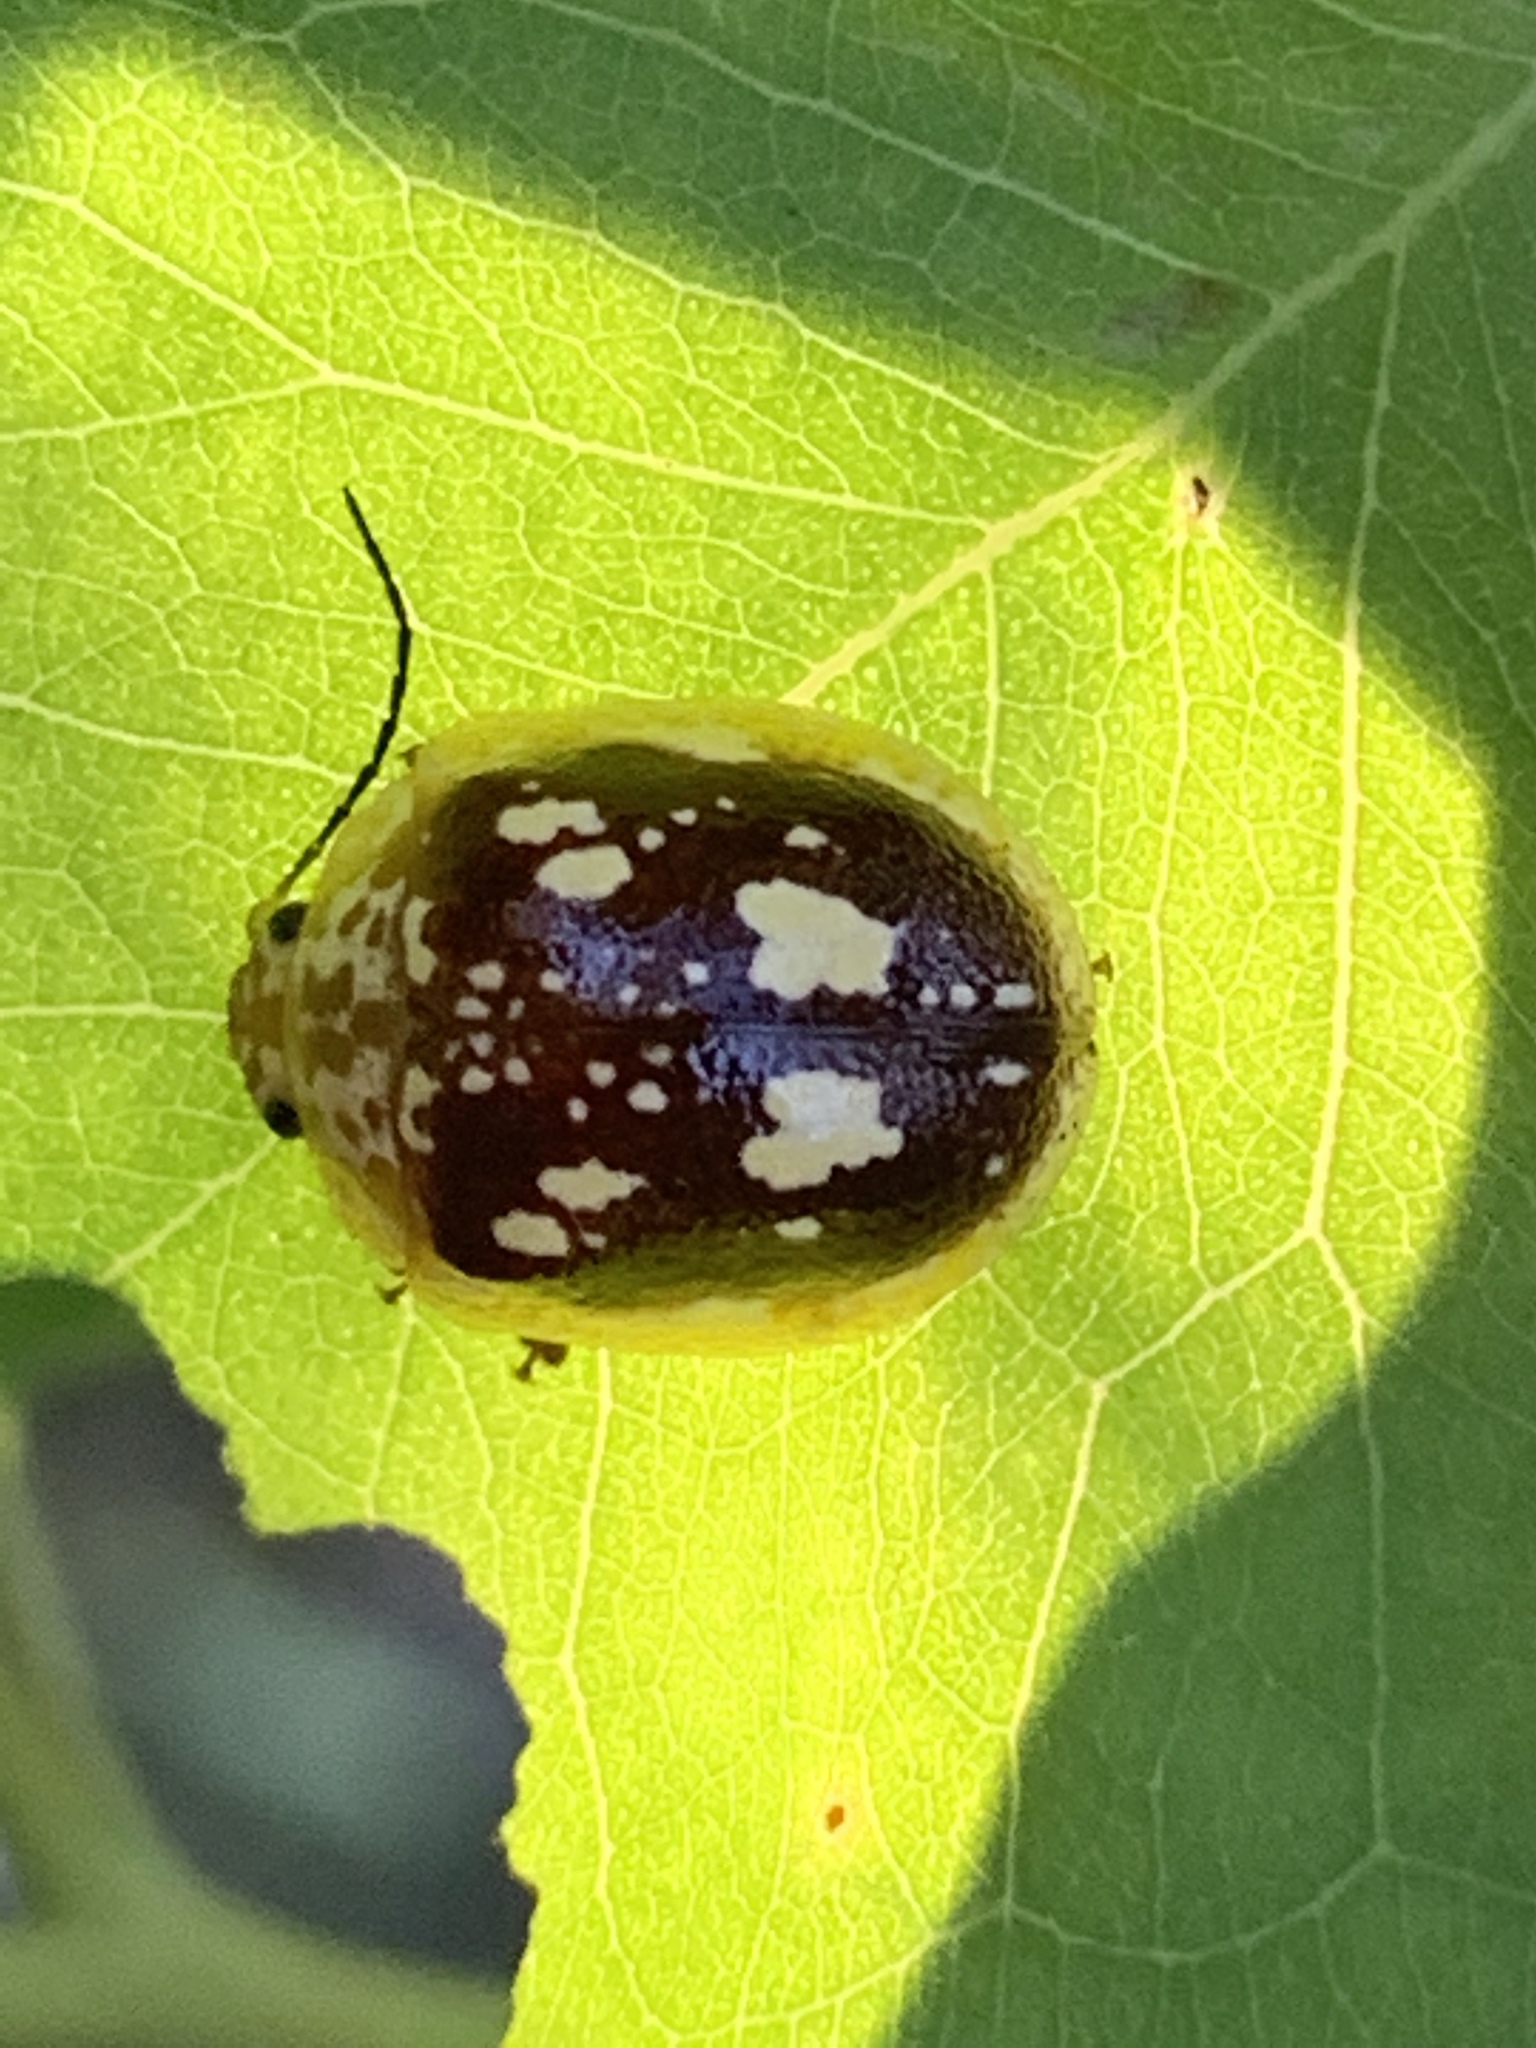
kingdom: Animalia
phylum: Arthropoda
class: Insecta
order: Coleoptera
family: Chrysomelidae
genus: Paropsis
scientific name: Paropsis maculata
